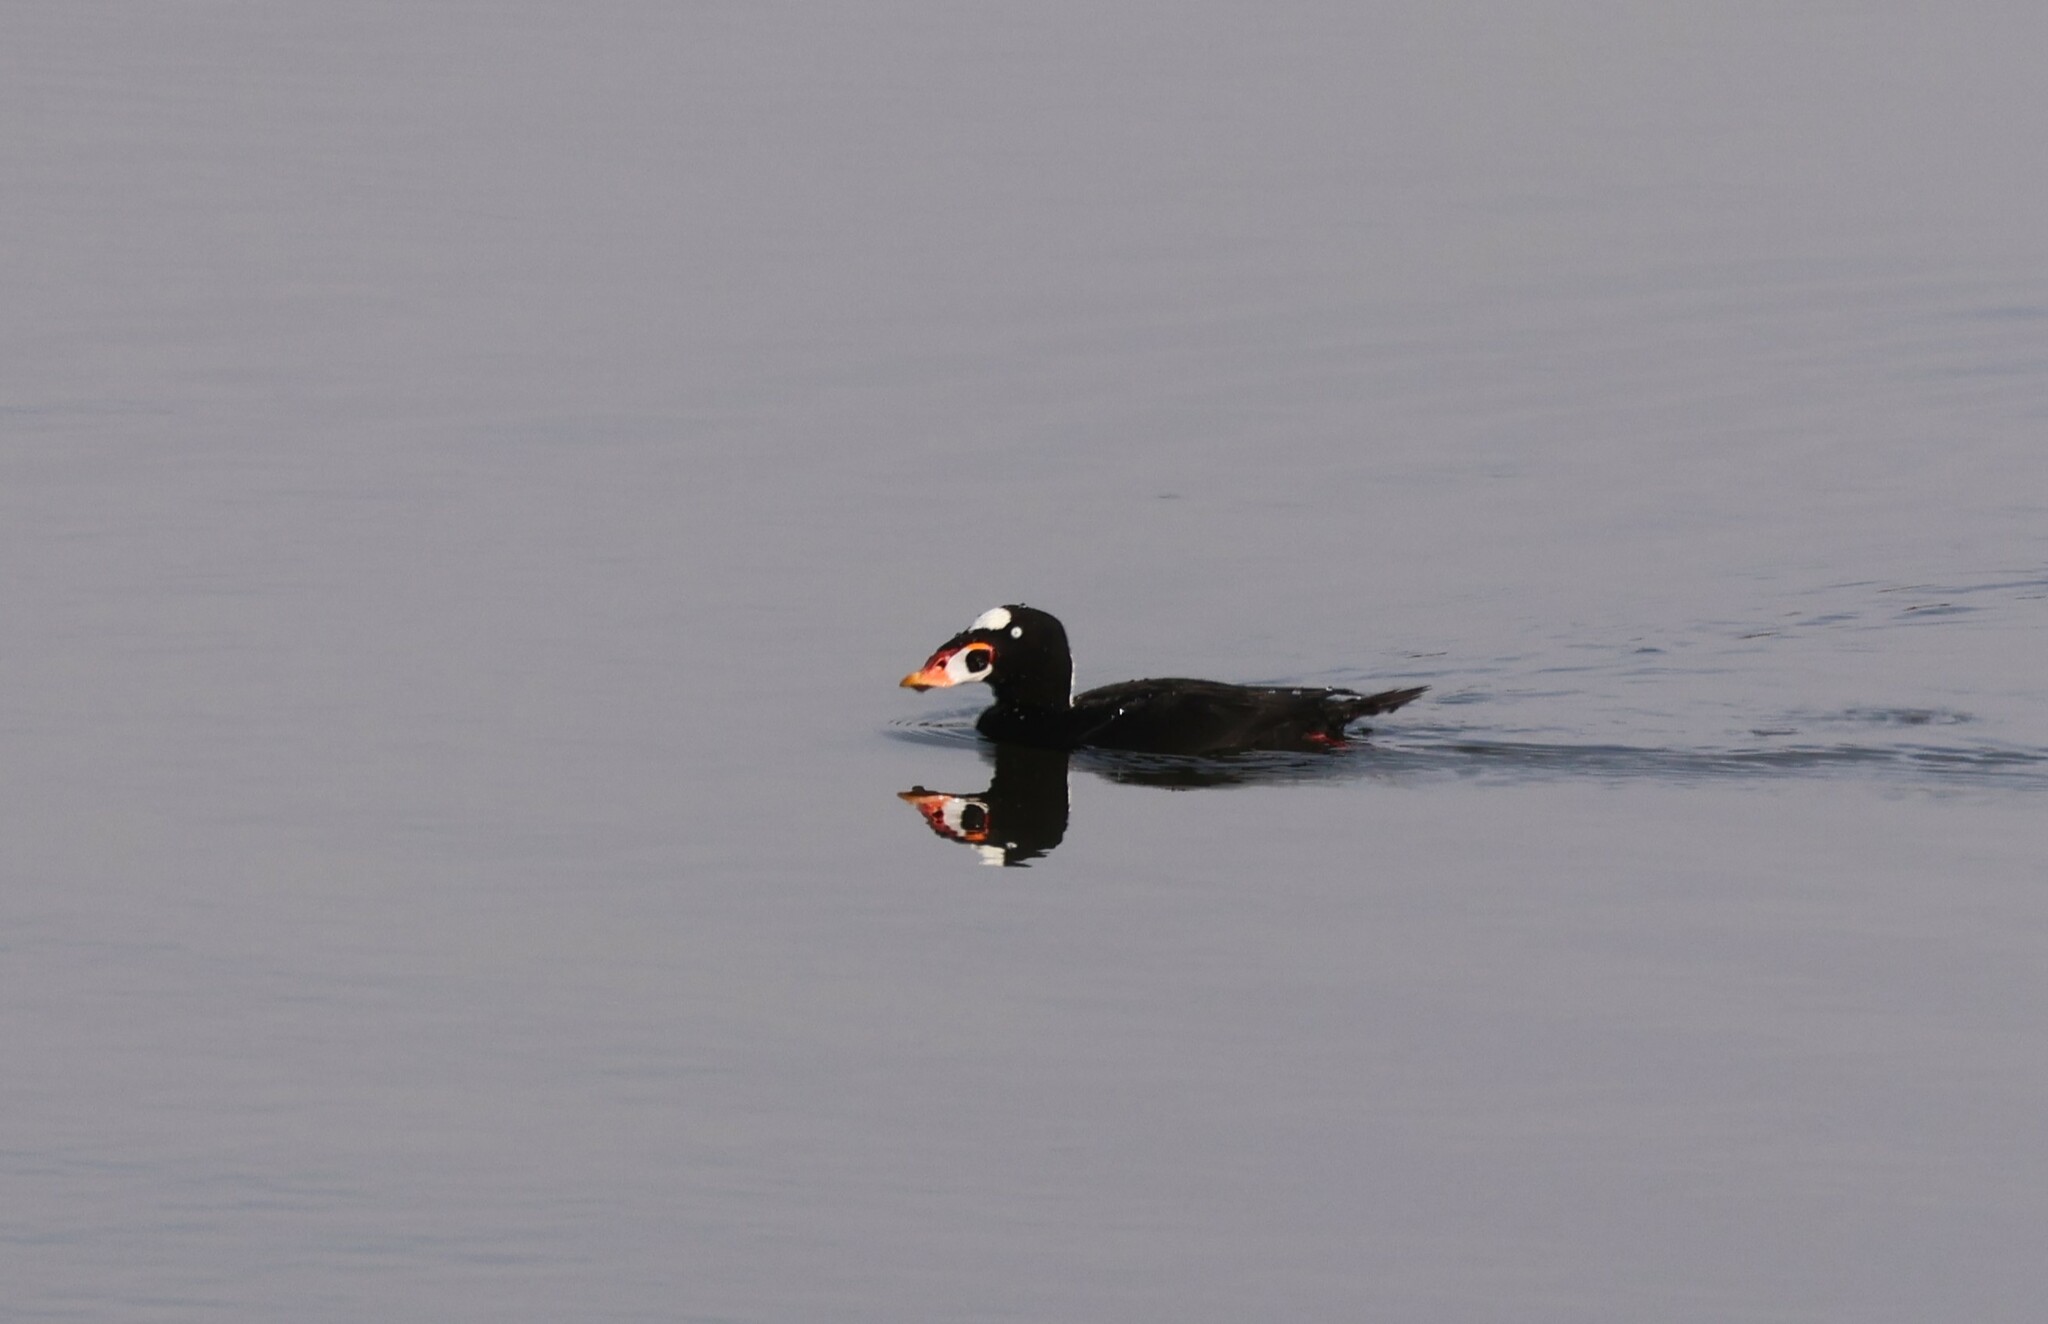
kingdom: Animalia
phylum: Chordata
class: Aves
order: Anseriformes
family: Anatidae
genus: Melanitta
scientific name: Melanitta perspicillata
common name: Surf scoter
